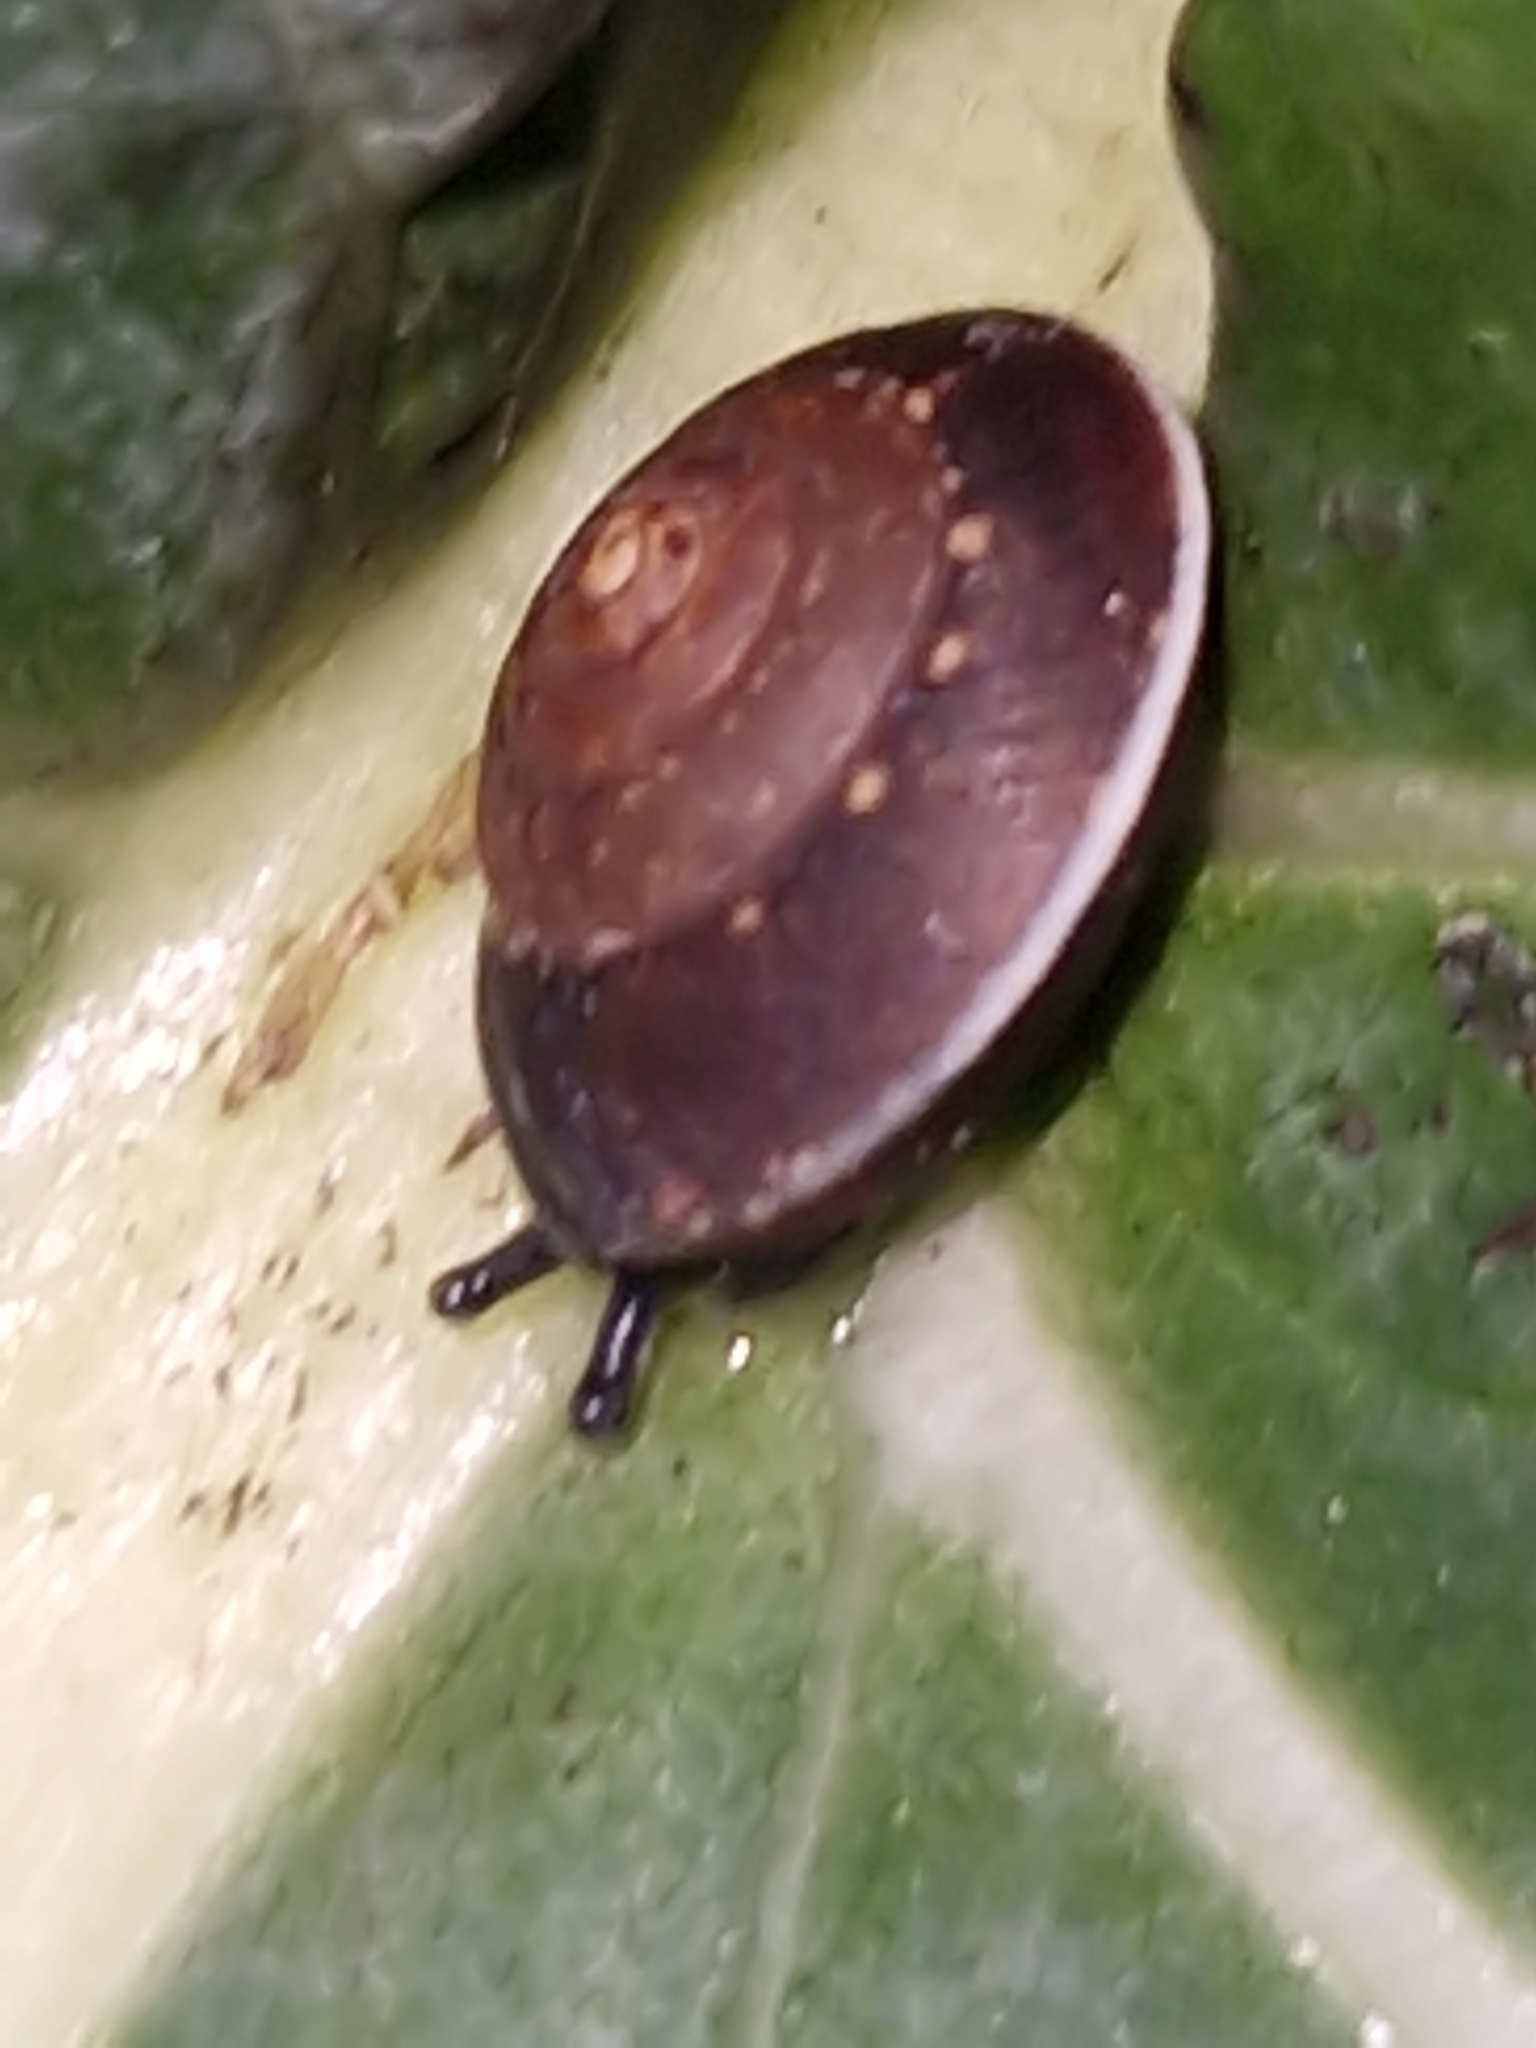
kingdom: Animalia
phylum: Mollusca
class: Gastropoda
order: Stylommatophora
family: Hygromiidae
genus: Hygromia
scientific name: Hygromia cinctella
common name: Girdled snail
